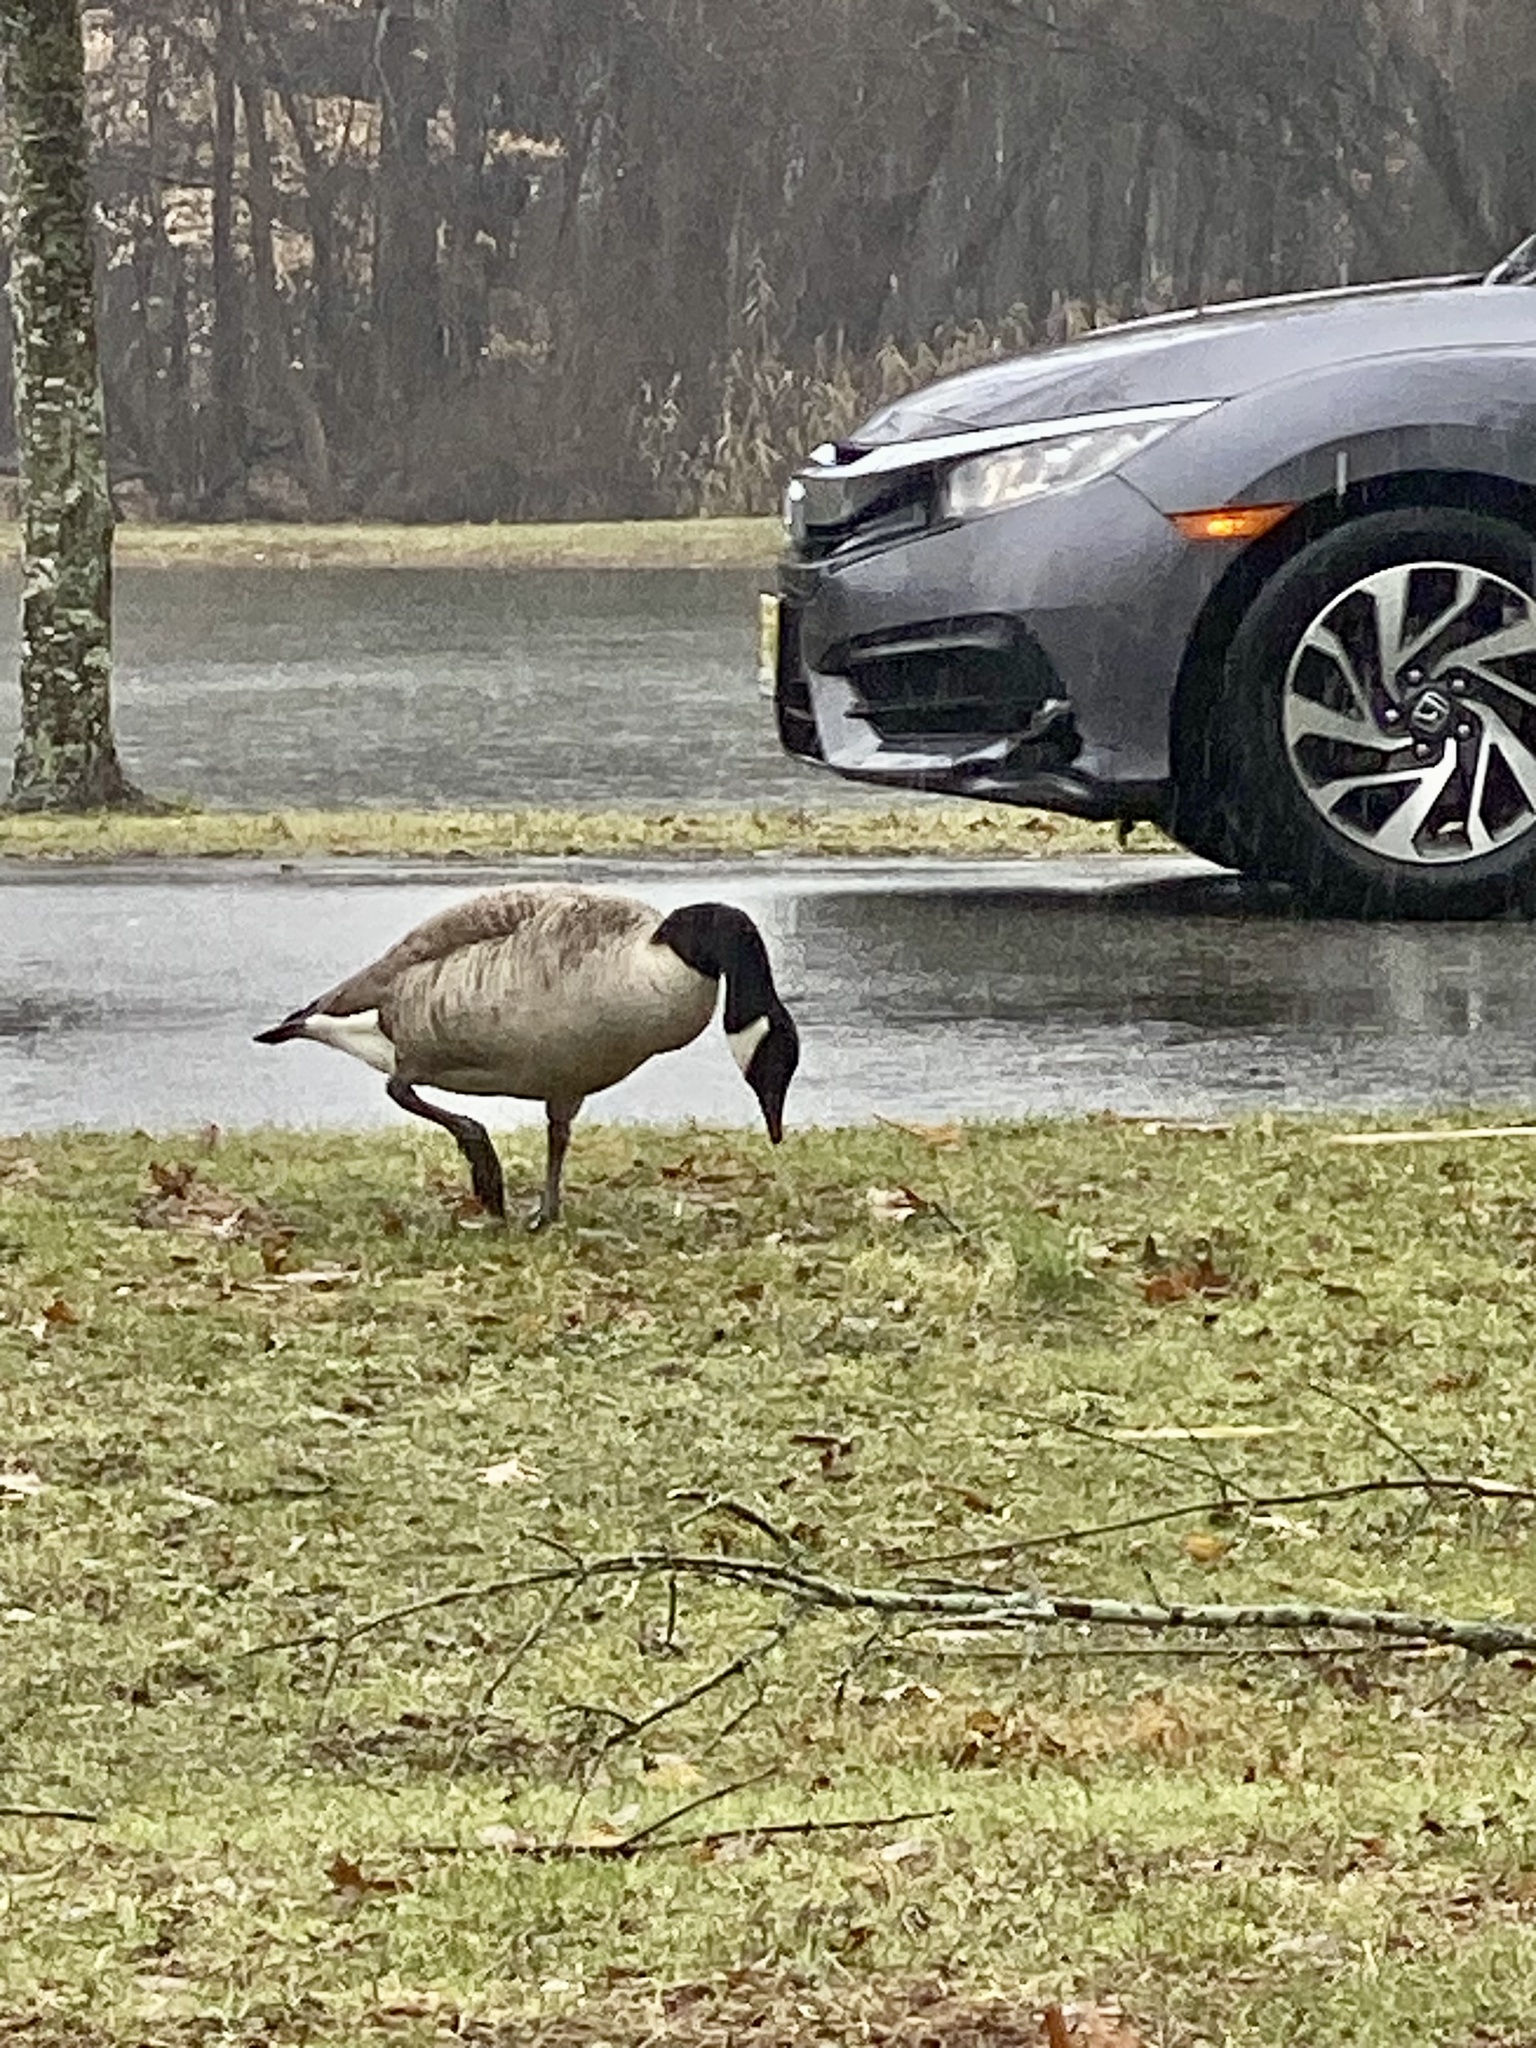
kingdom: Animalia
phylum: Chordata
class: Aves
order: Anseriformes
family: Anatidae
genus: Branta
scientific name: Branta canadensis
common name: Canada goose
